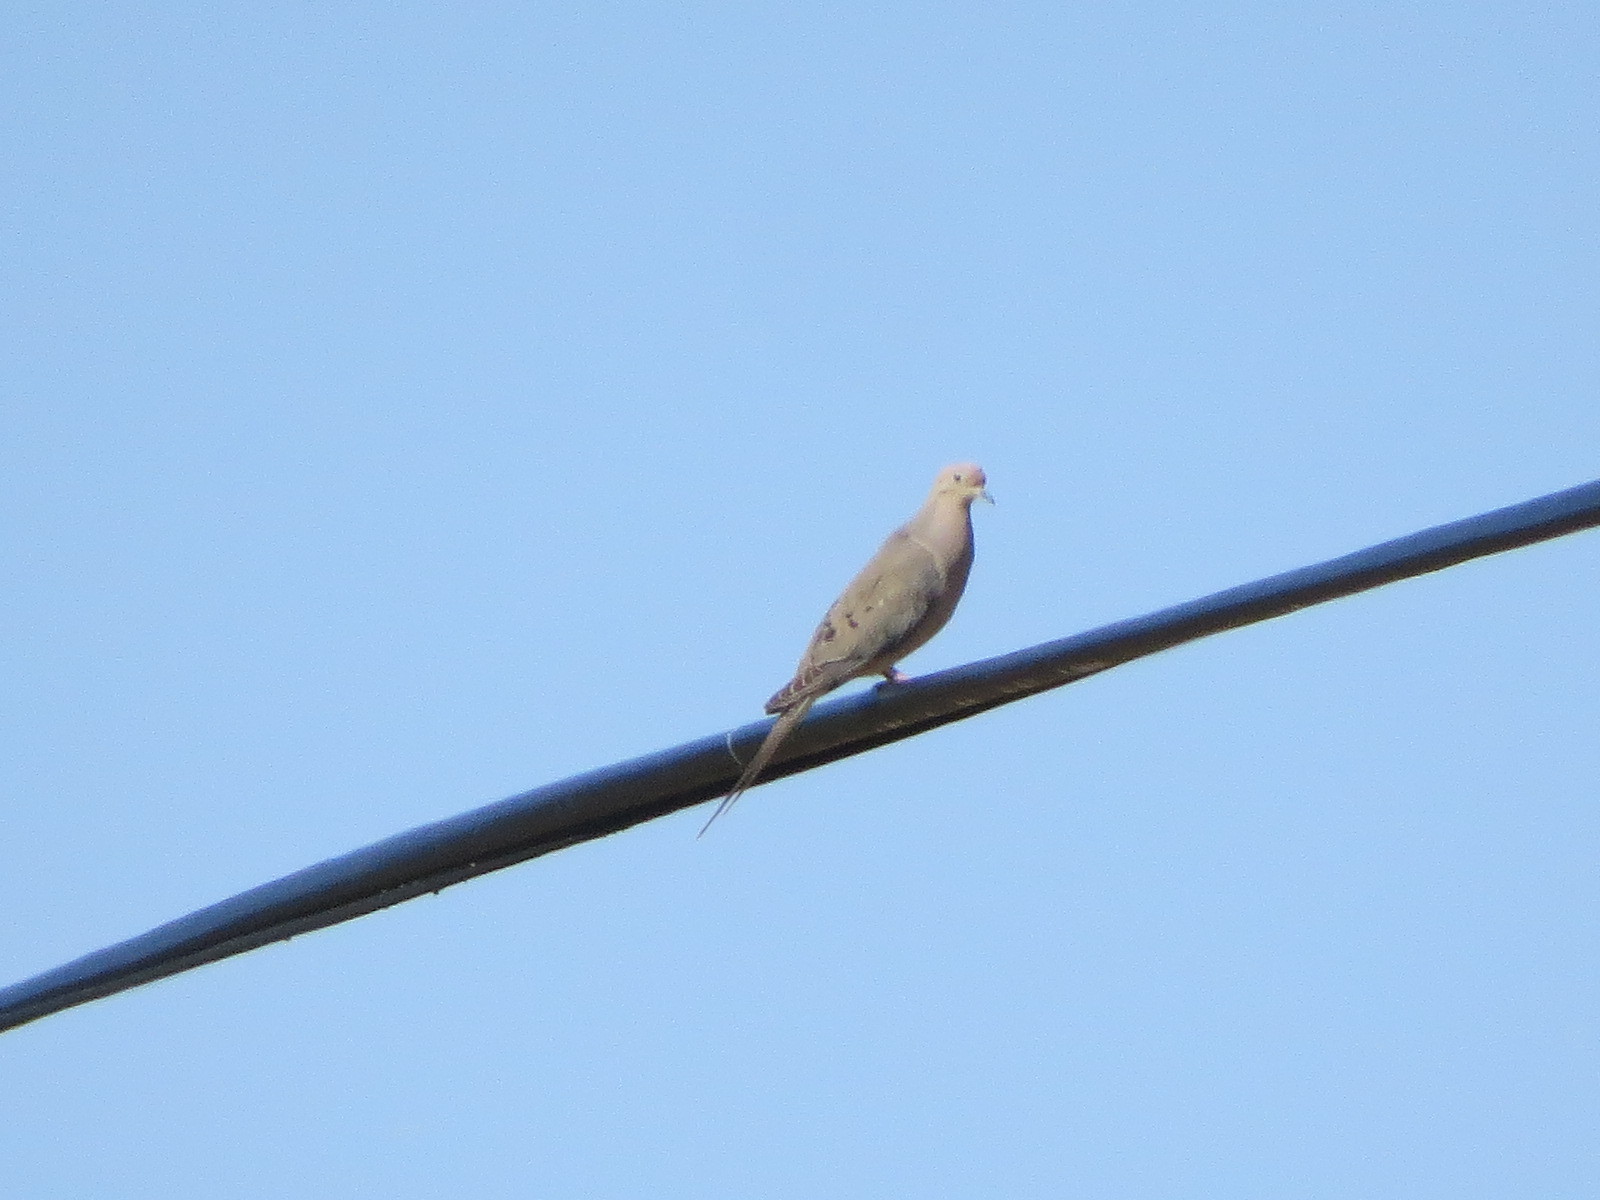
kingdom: Animalia
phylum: Chordata
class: Aves
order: Columbiformes
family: Columbidae
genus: Zenaida
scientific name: Zenaida macroura
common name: Mourning dove
